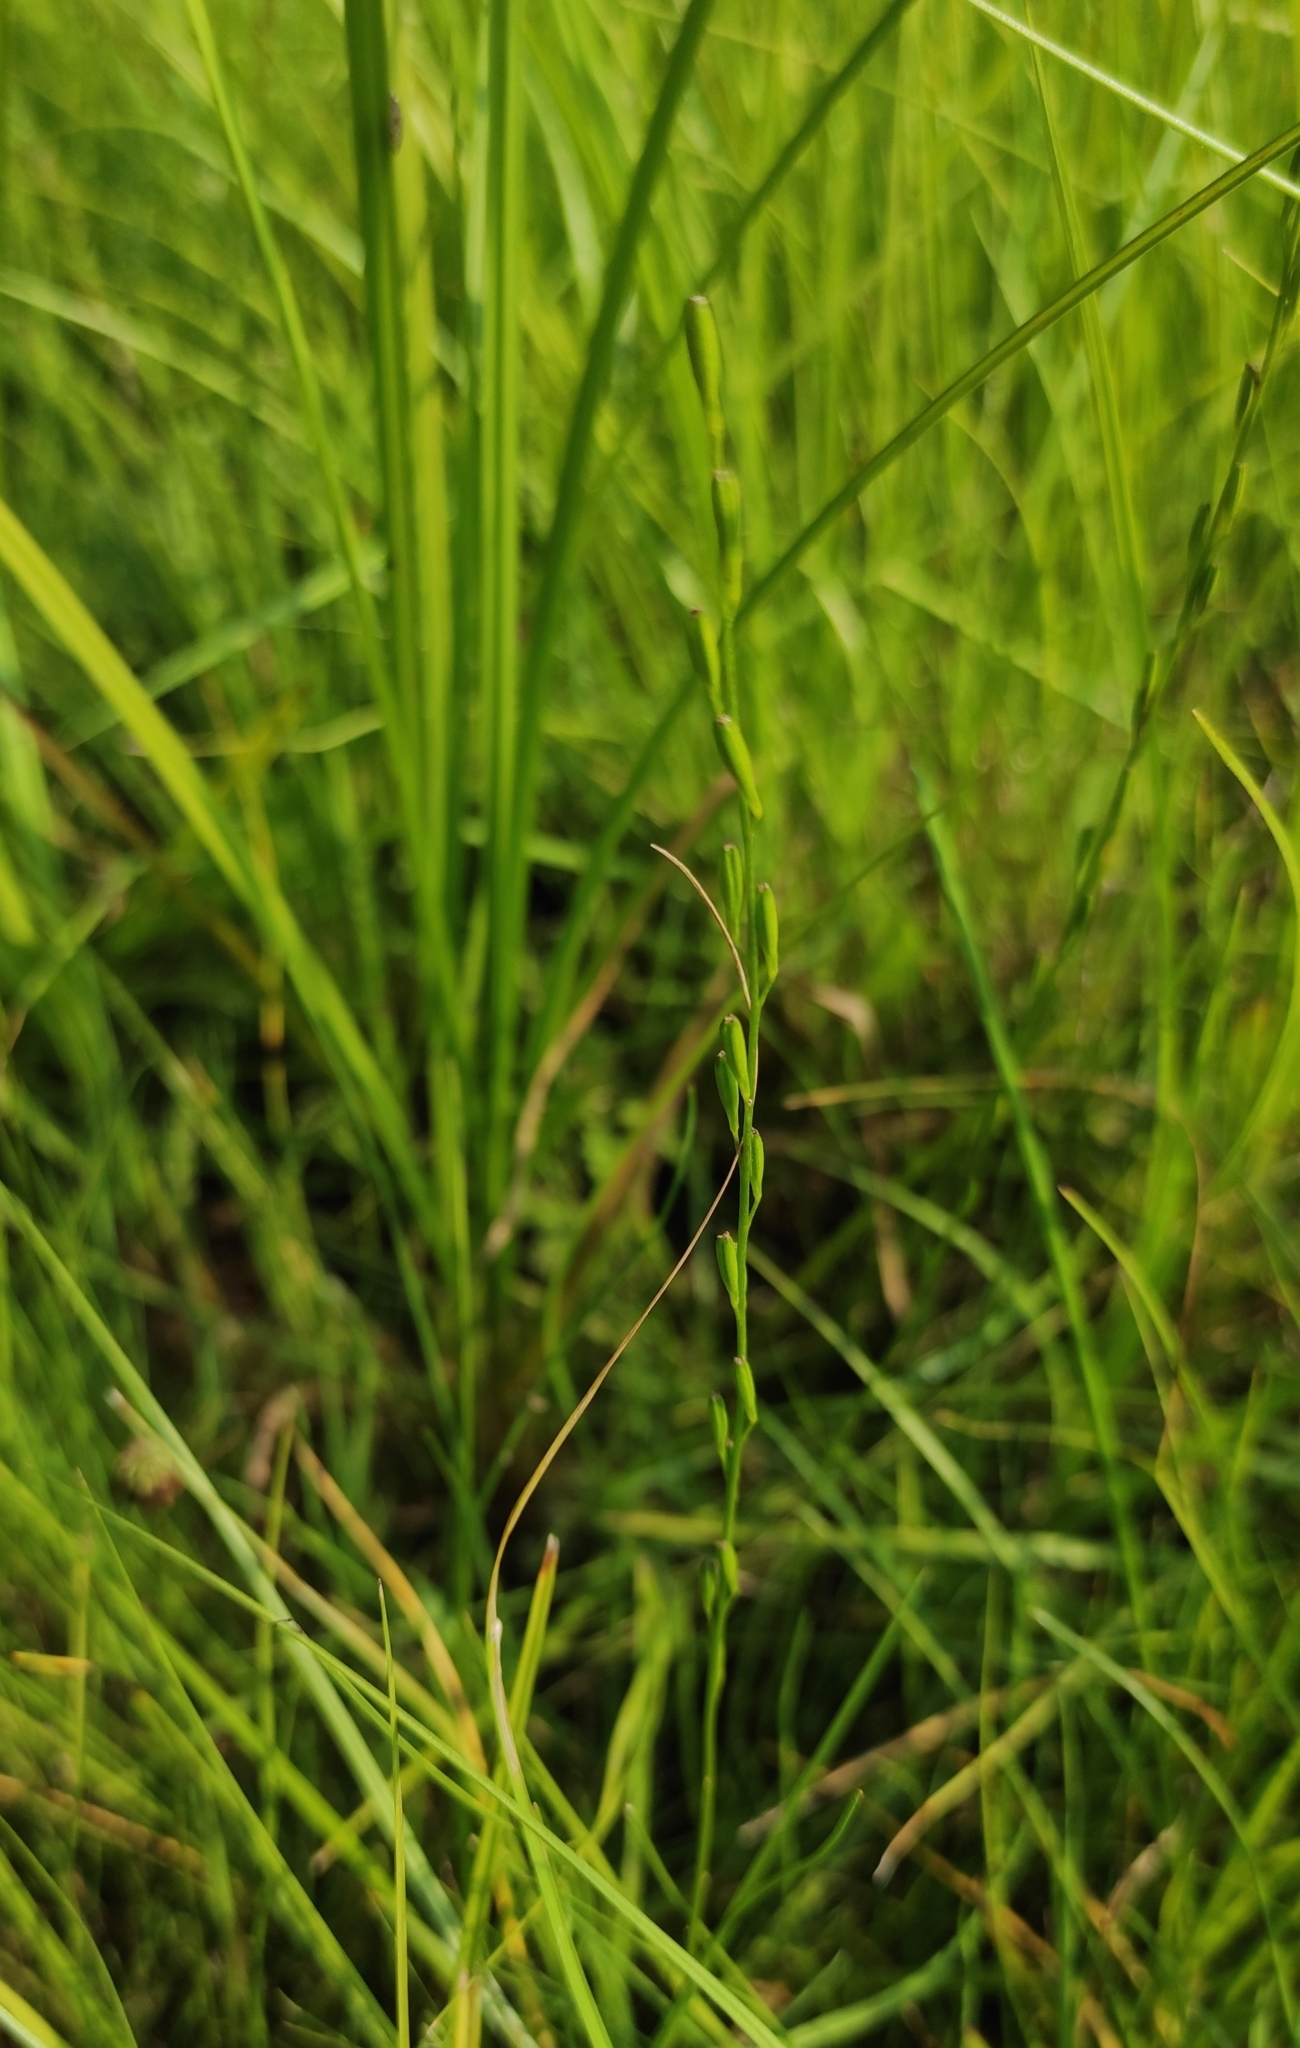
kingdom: Plantae
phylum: Tracheophyta
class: Liliopsida
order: Alismatales
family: Juncaginaceae
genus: Triglochin
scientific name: Triglochin palustris
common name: Marsh arrowgrass
